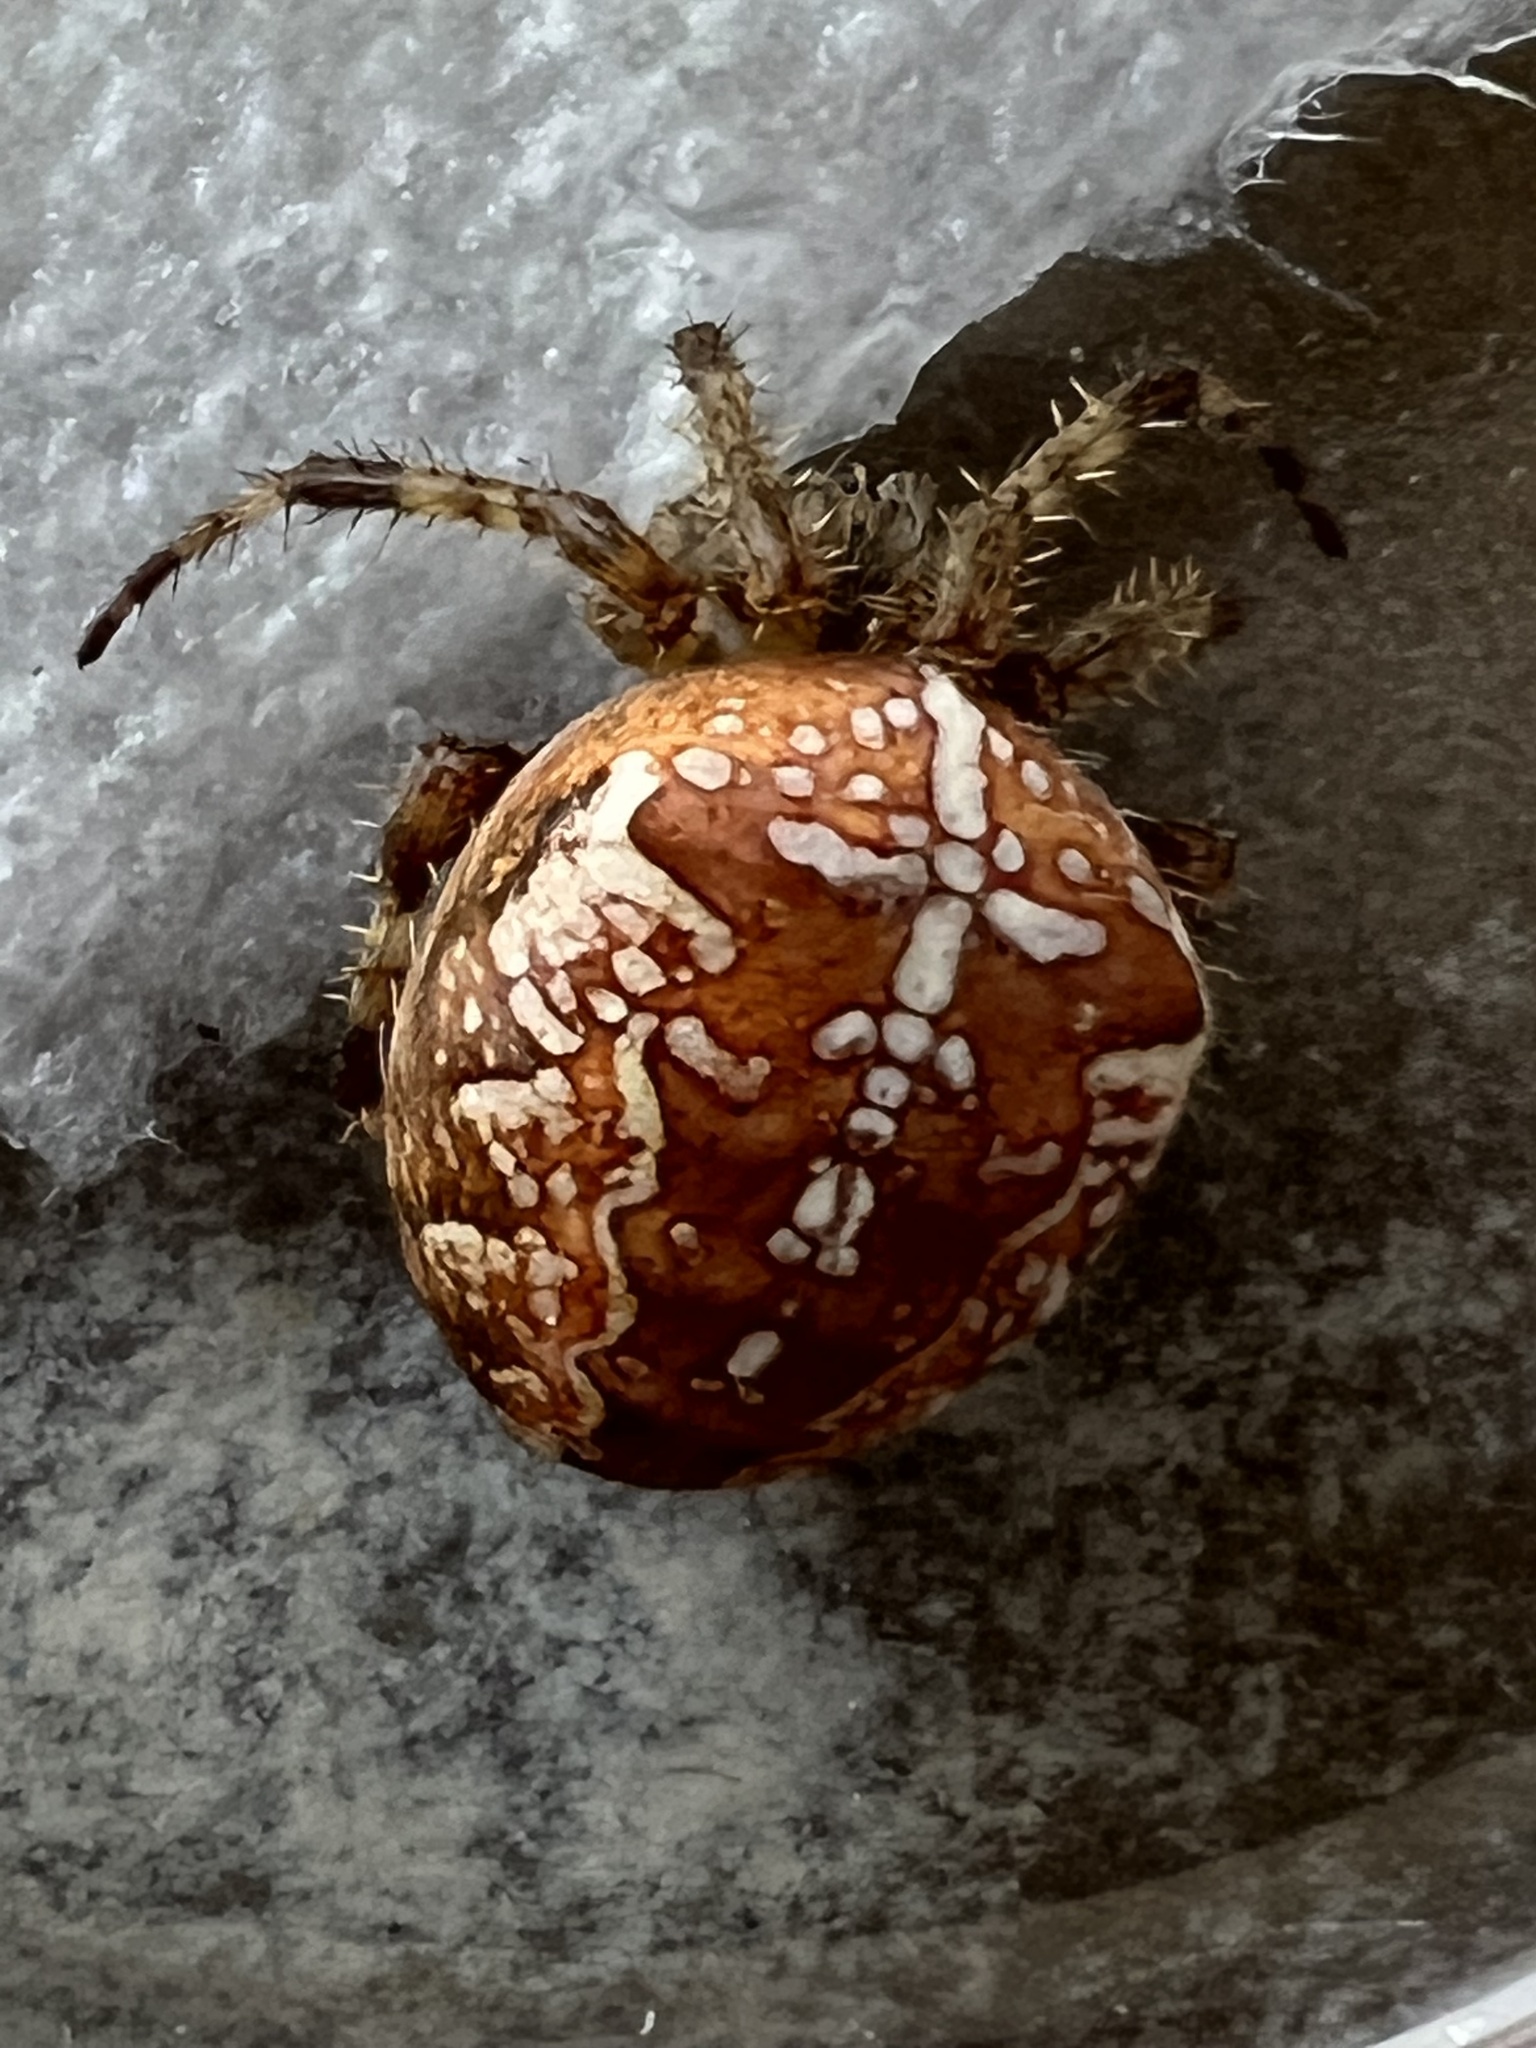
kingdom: Animalia
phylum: Arthropoda
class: Arachnida
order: Araneae
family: Araneidae
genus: Araneus
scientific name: Araneus diadematus
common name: Cross orbweaver
